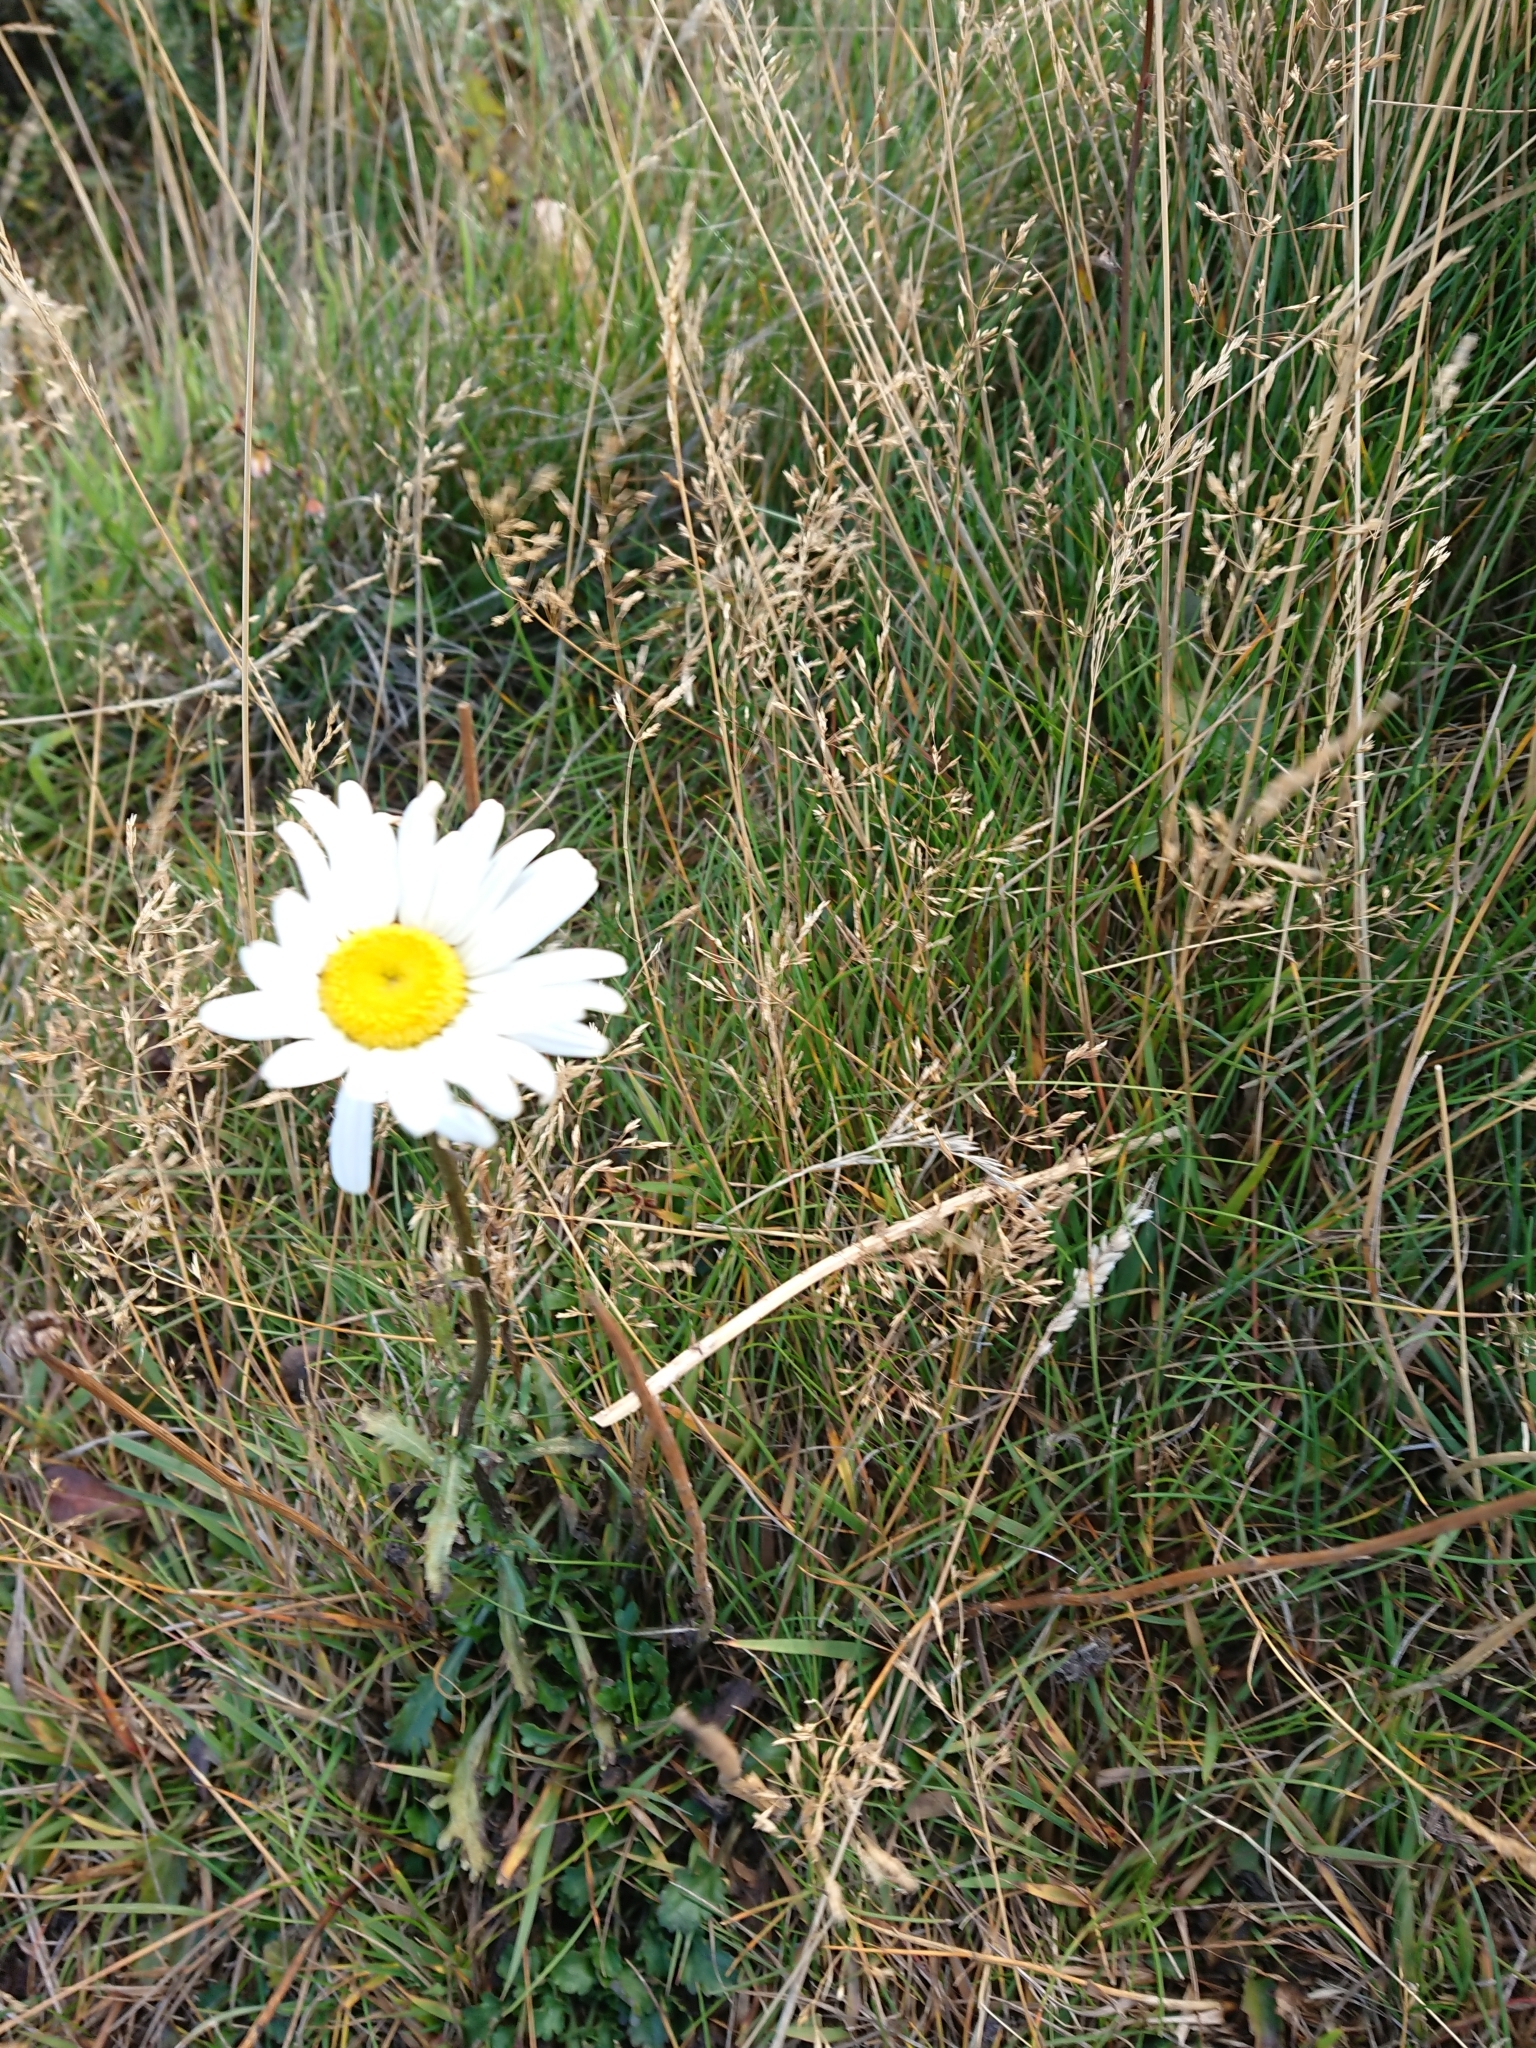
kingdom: Plantae
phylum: Tracheophyta
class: Magnoliopsida
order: Asterales
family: Asteraceae
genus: Leucanthemum
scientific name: Leucanthemum vulgare
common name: Oxeye daisy
